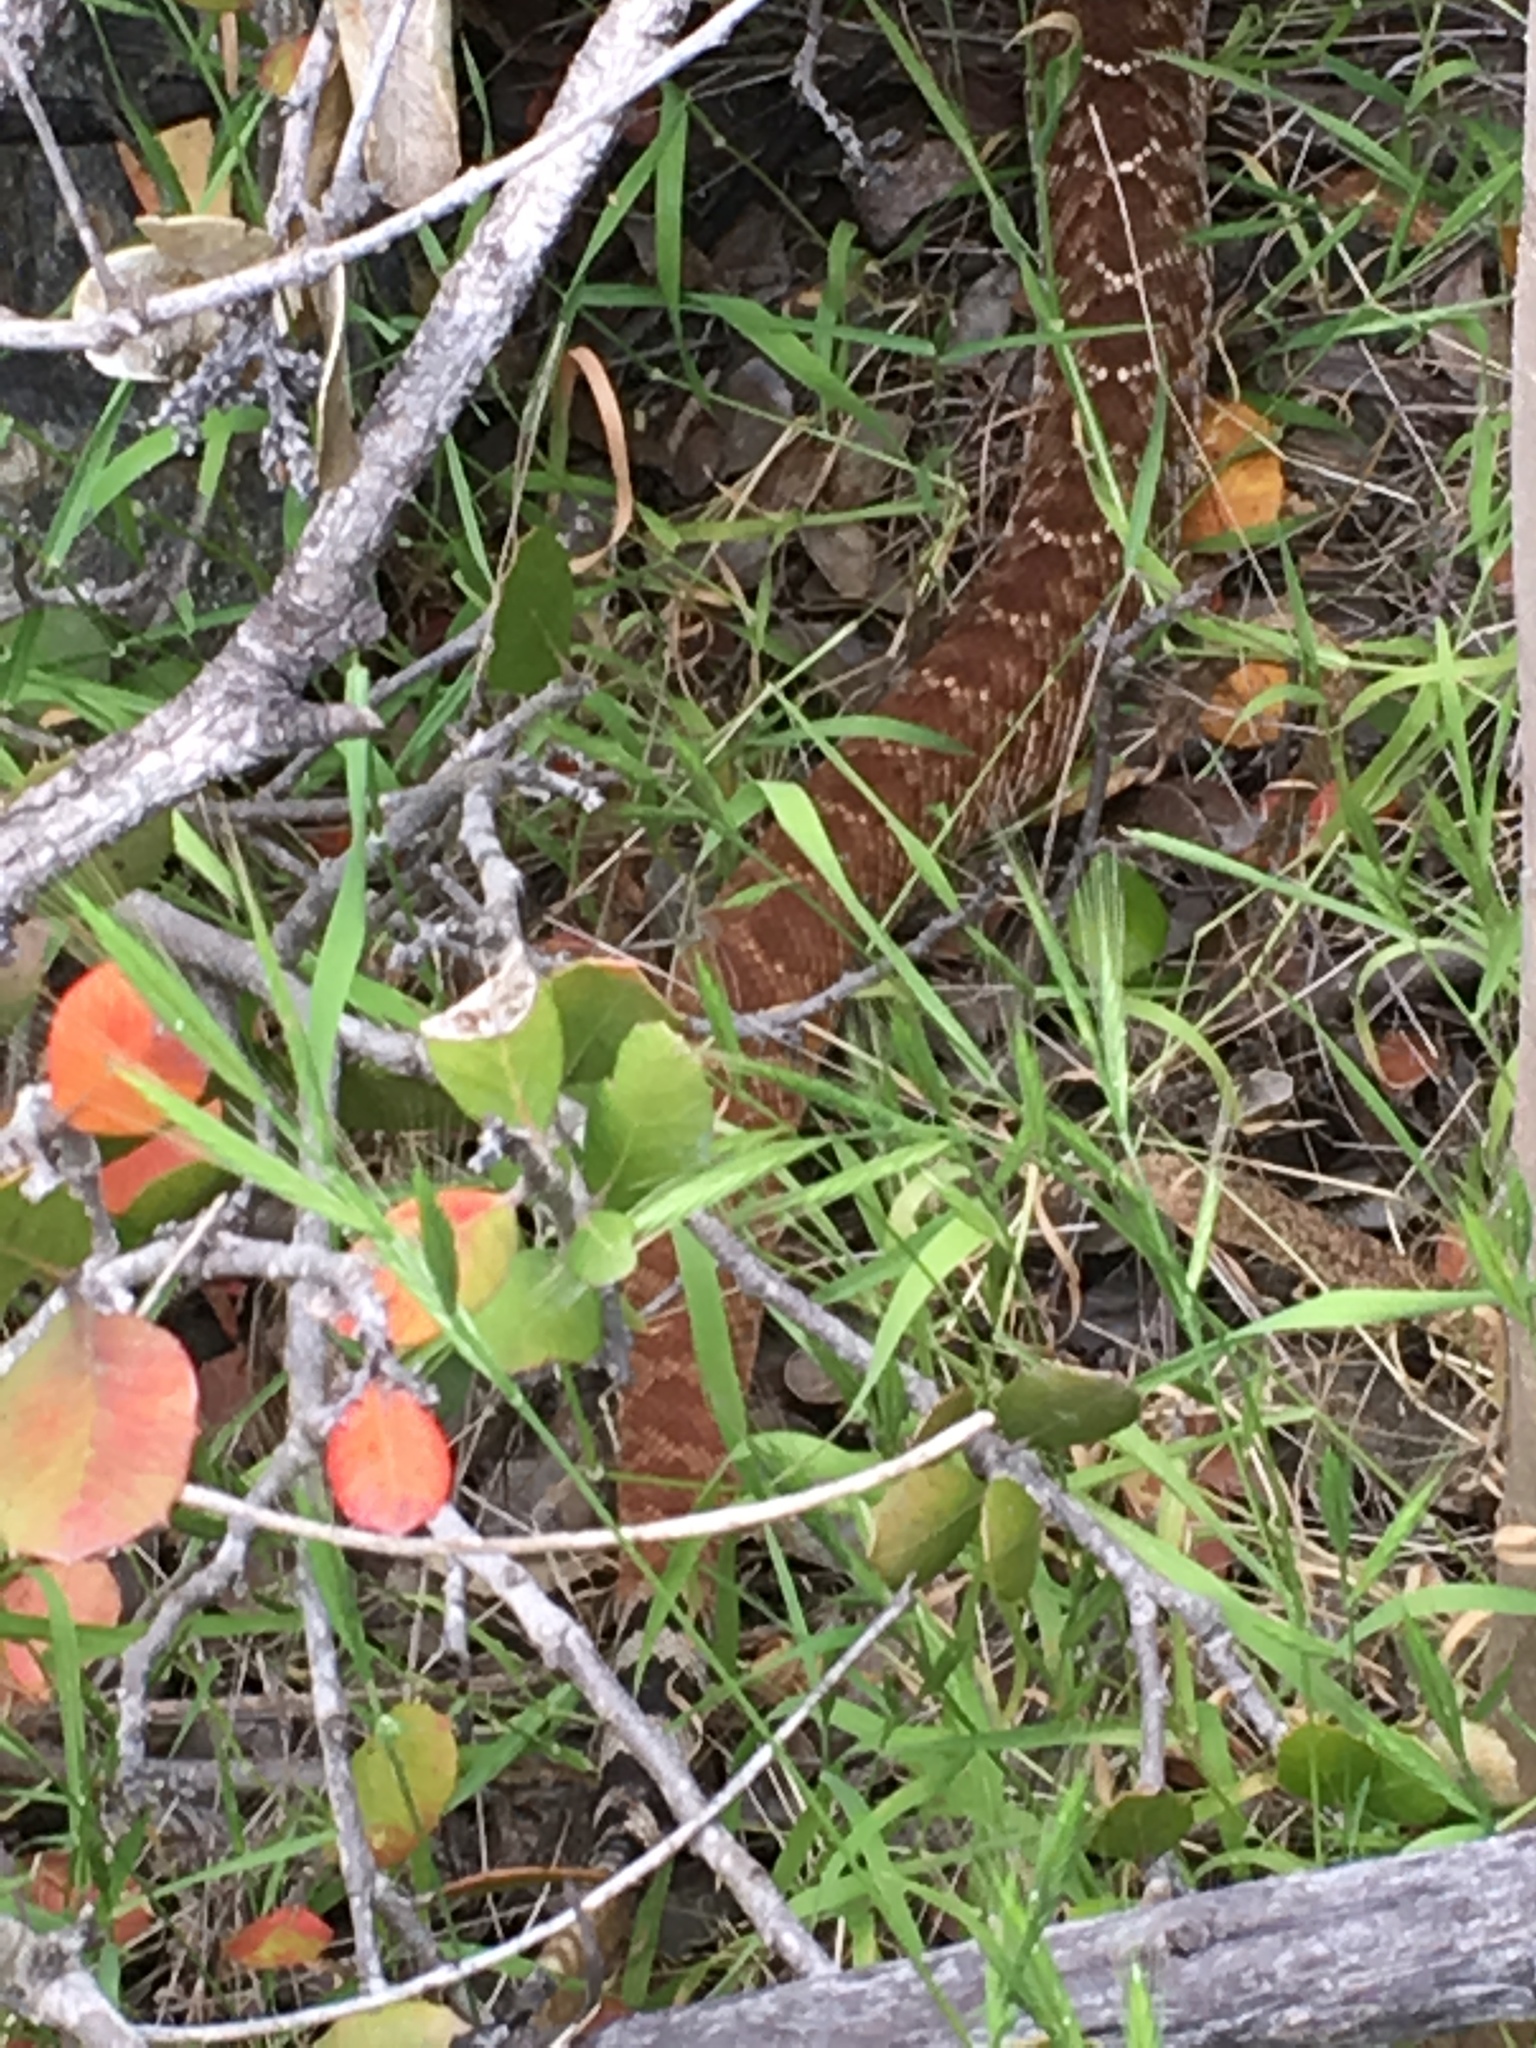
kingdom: Animalia
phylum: Chordata
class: Squamata
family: Viperidae
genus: Crotalus
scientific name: Crotalus ruber
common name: Red diamond rattlesnake
